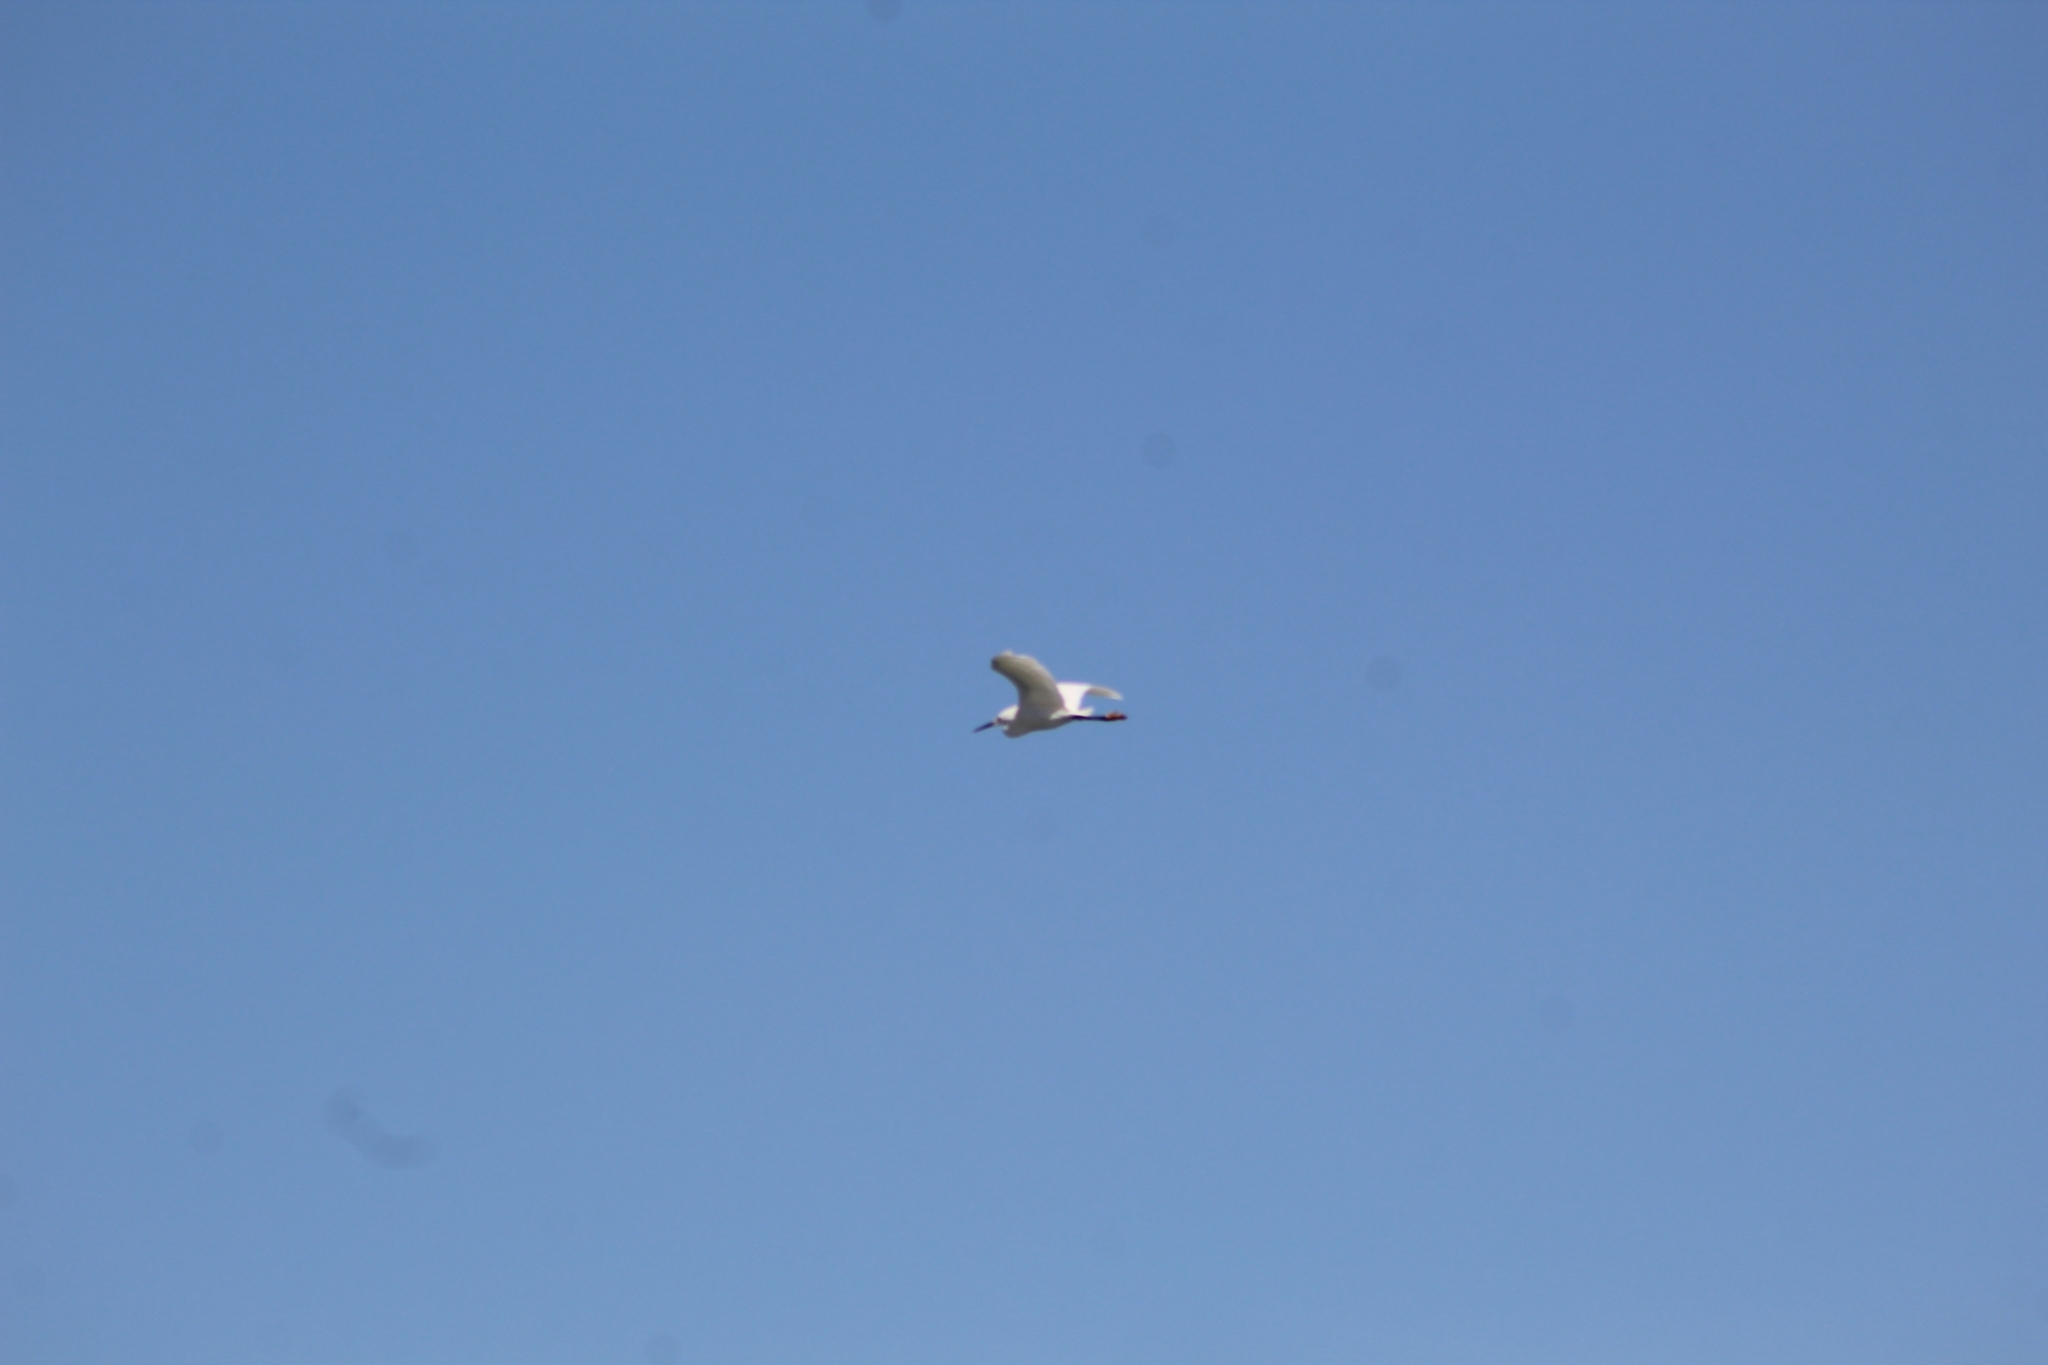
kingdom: Animalia
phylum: Chordata
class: Aves
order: Pelecaniformes
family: Ardeidae
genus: Egretta
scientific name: Egretta thula
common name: Snowy egret
